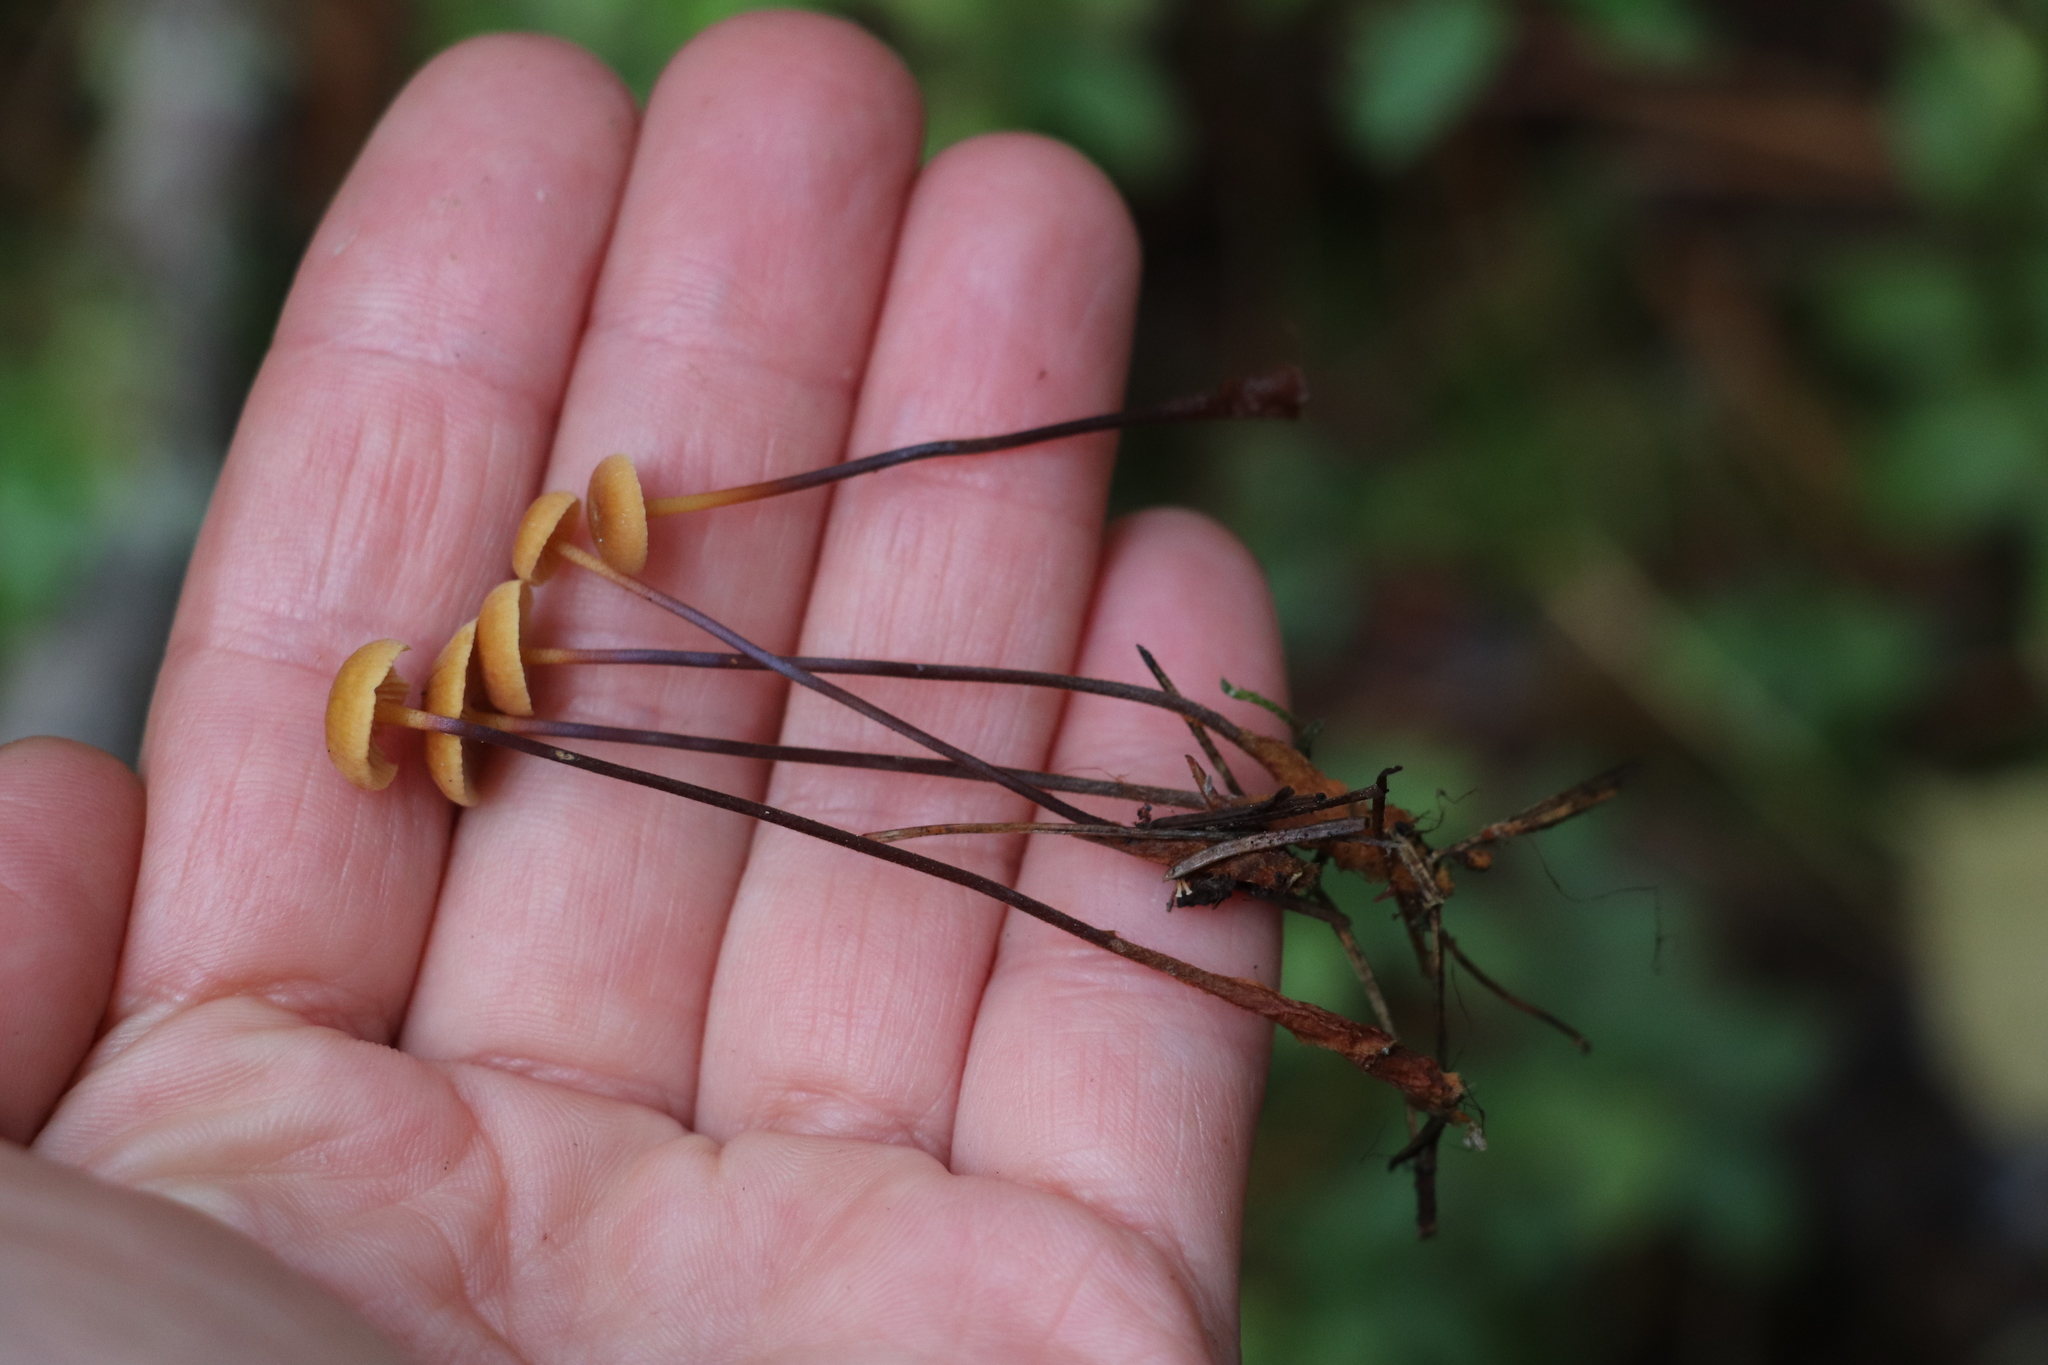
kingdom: Fungi
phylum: Basidiomycota
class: Agaricomycetes
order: Agaricales
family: Mycenaceae
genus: Xeromphalina
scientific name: Xeromphalina cauticinalis
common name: Pinelitter gingertail
